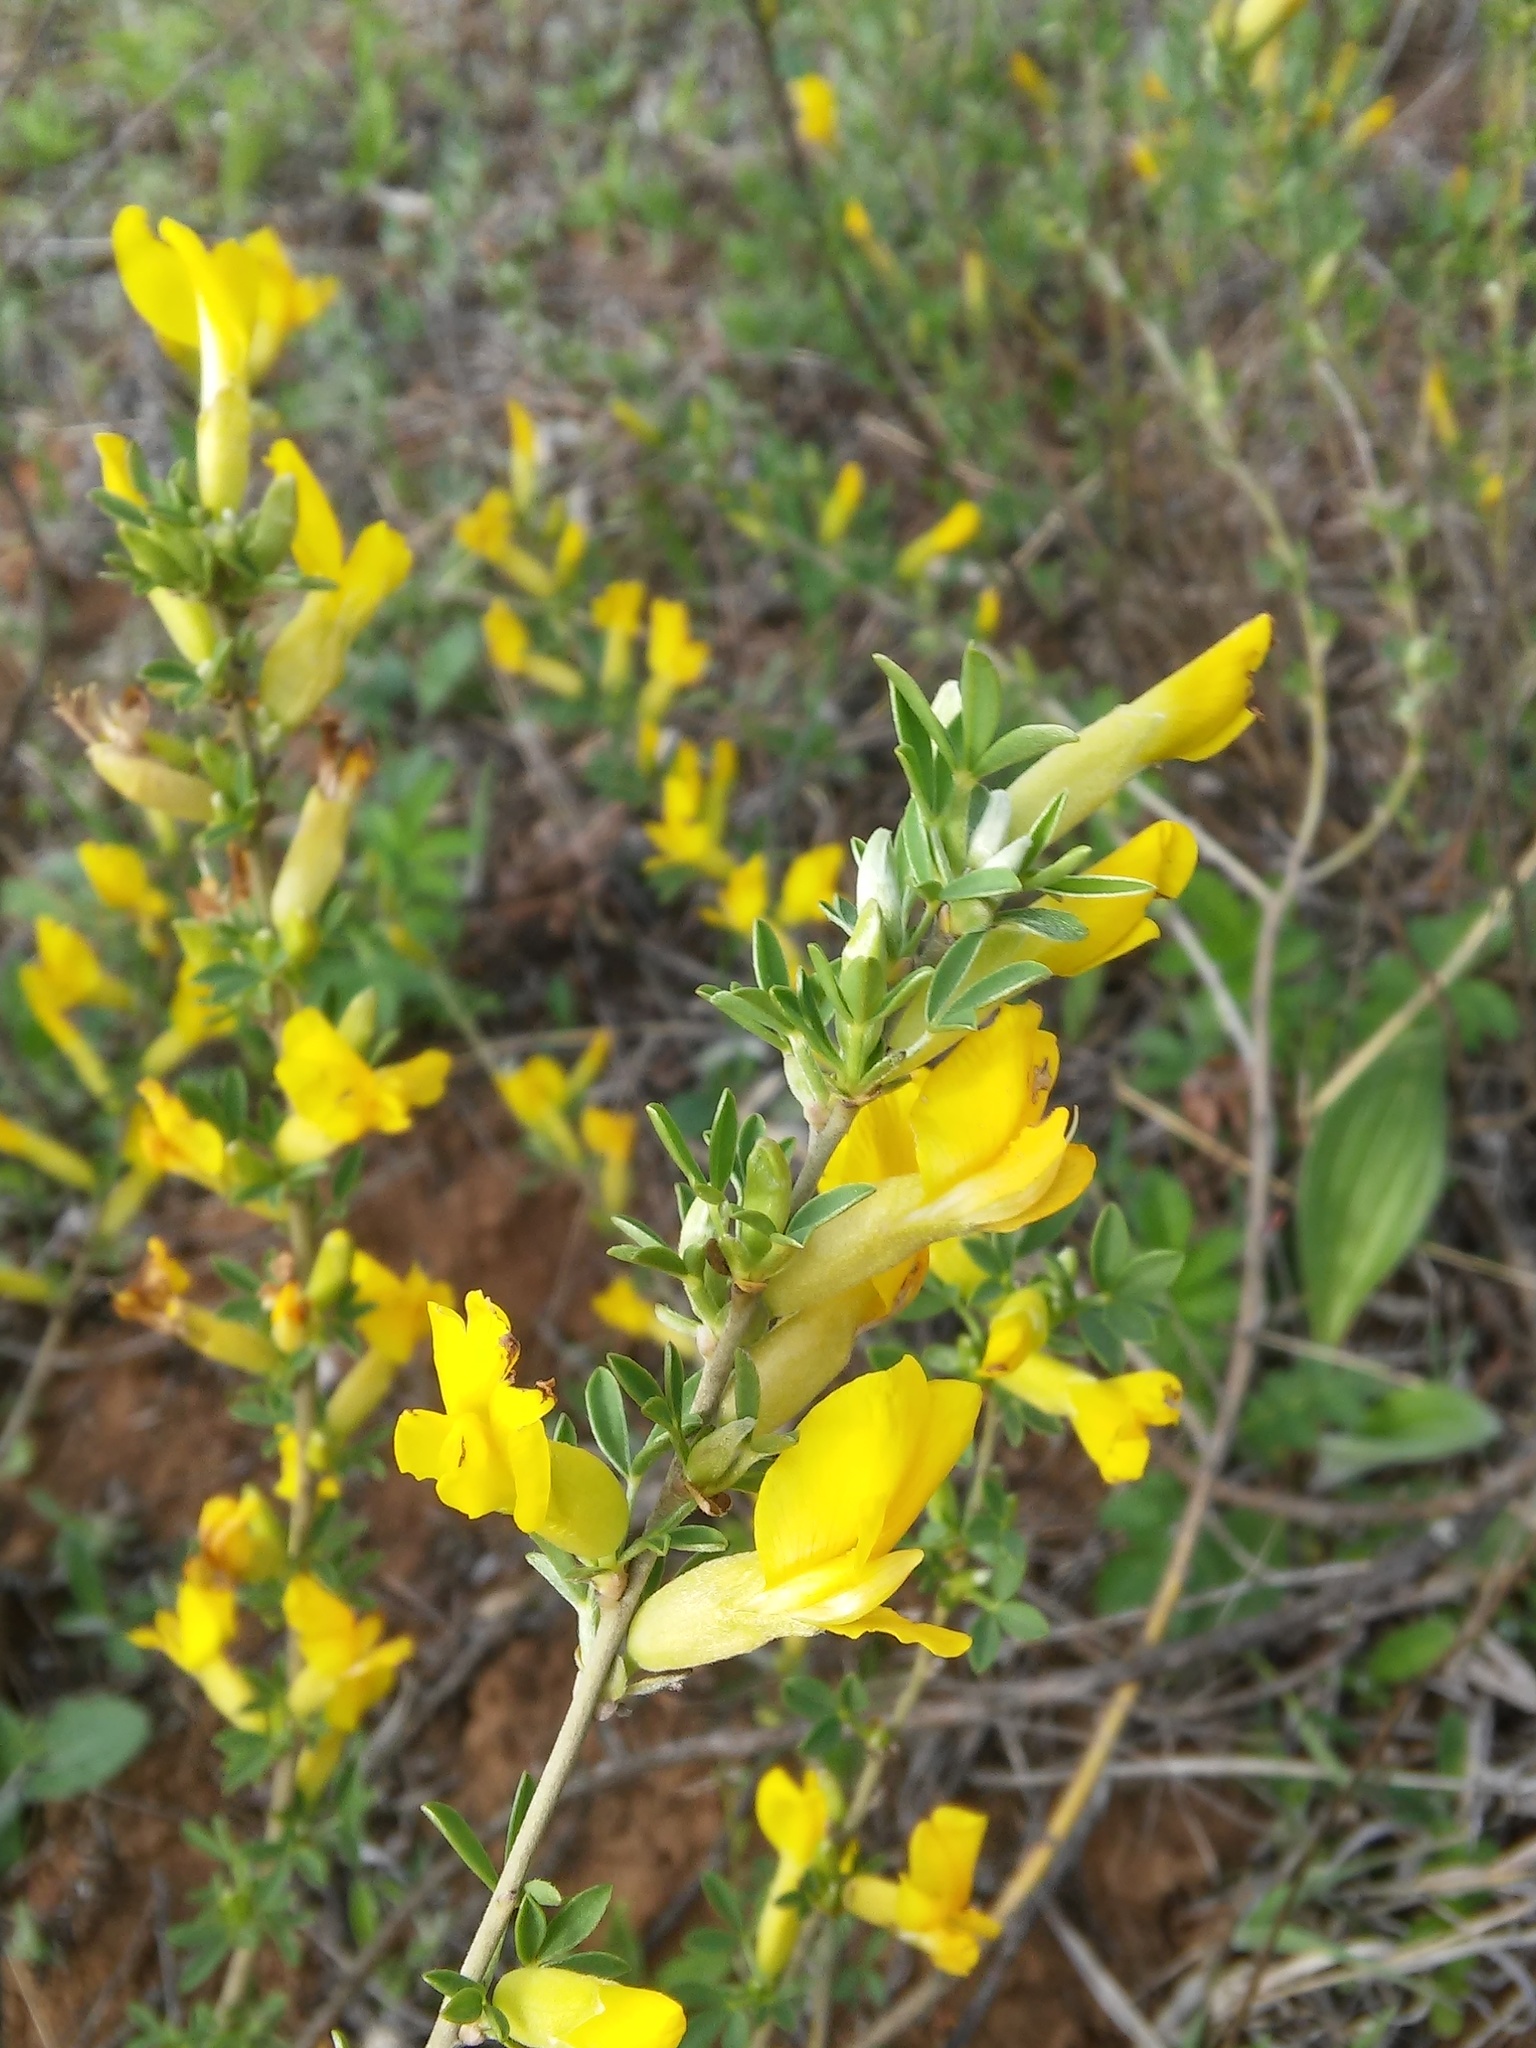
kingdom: Plantae
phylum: Tracheophyta
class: Magnoliopsida
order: Fabales
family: Fabaceae
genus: Chamaecytisus
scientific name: Chamaecytisus ruthenicus
